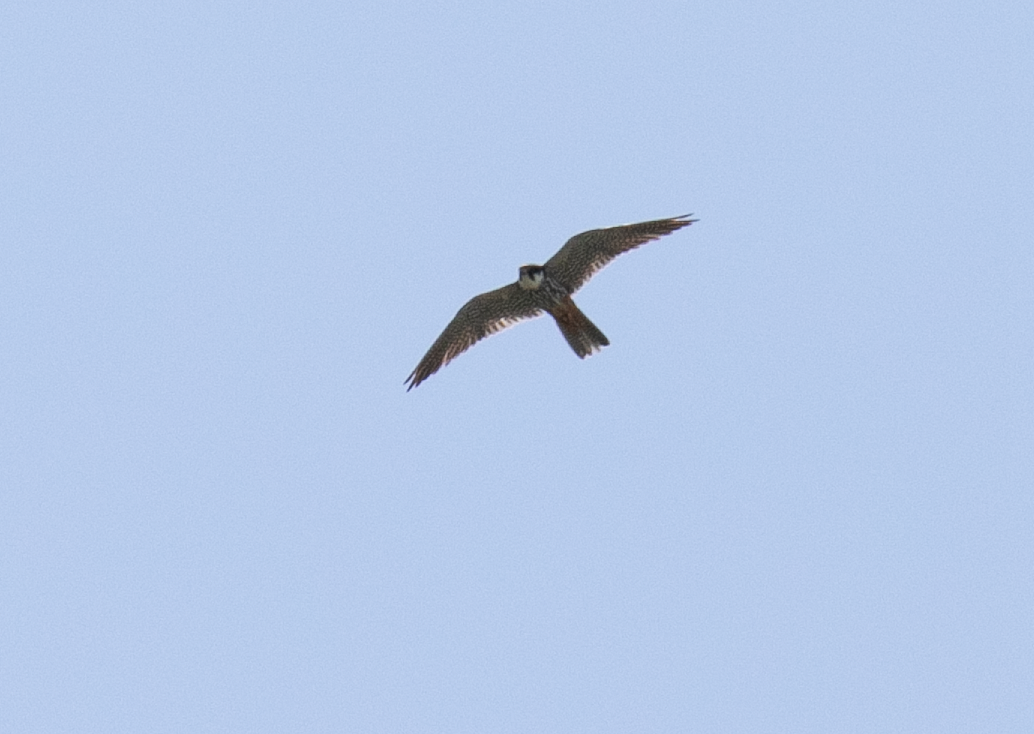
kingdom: Animalia
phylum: Chordata
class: Aves
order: Falconiformes
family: Falconidae
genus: Falco
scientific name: Falco subbuteo
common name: Eurasian hobby
